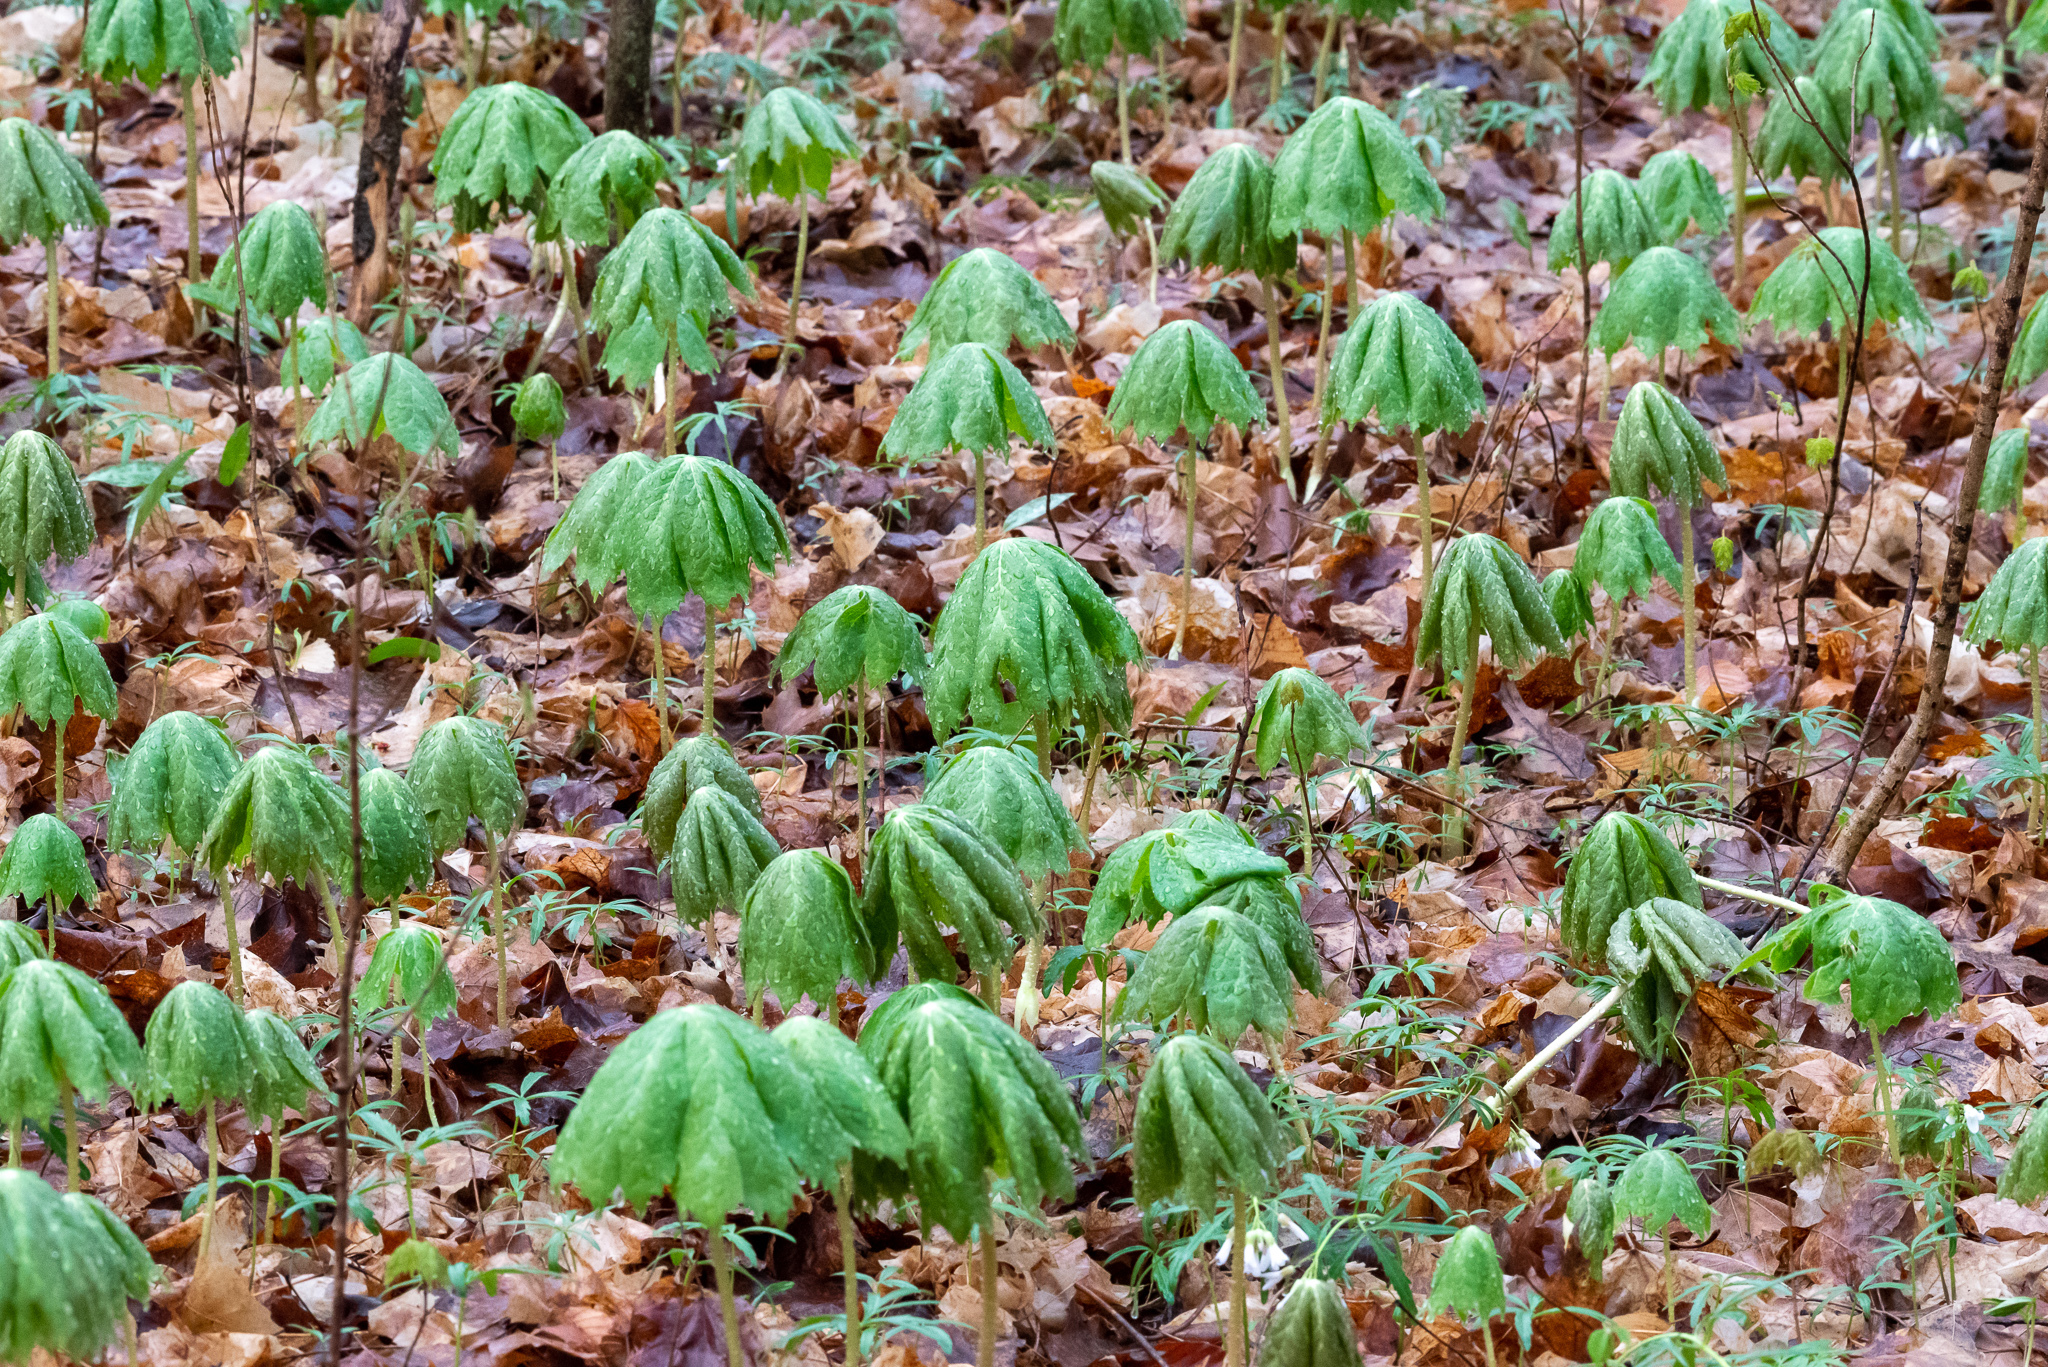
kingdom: Plantae
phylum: Tracheophyta
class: Magnoliopsida
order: Ranunculales
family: Berberidaceae
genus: Podophyllum
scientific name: Podophyllum peltatum
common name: Wild mandrake
